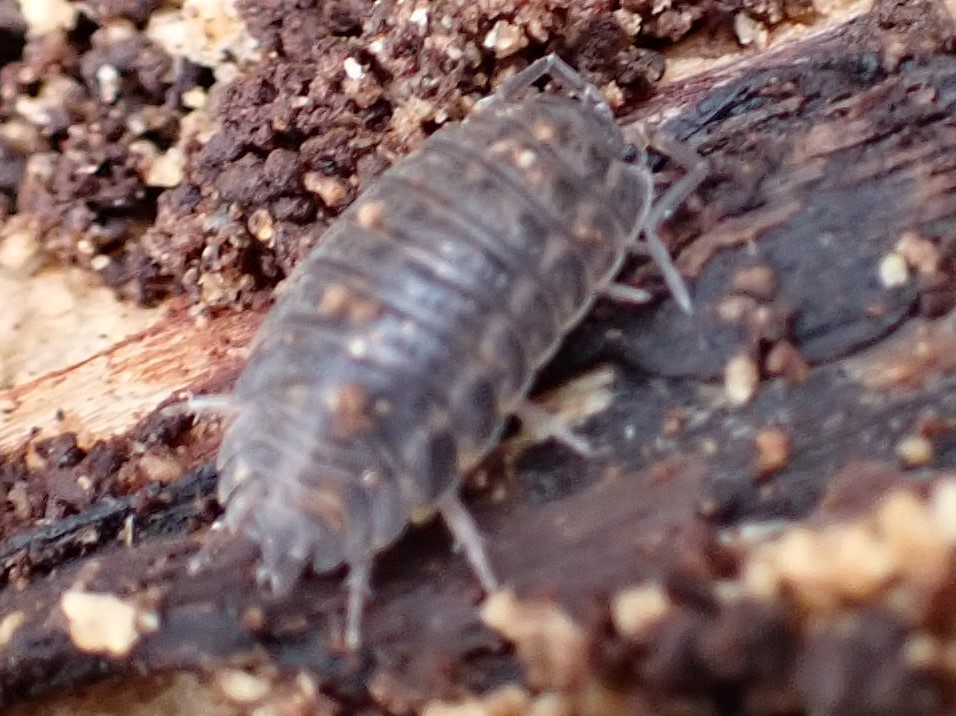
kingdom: Animalia
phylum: Arthropoda
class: Malacostraca
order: Isopoda
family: Trachelipodidae
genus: Trachelipus
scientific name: Trachelipus rathkii
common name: Isopod
